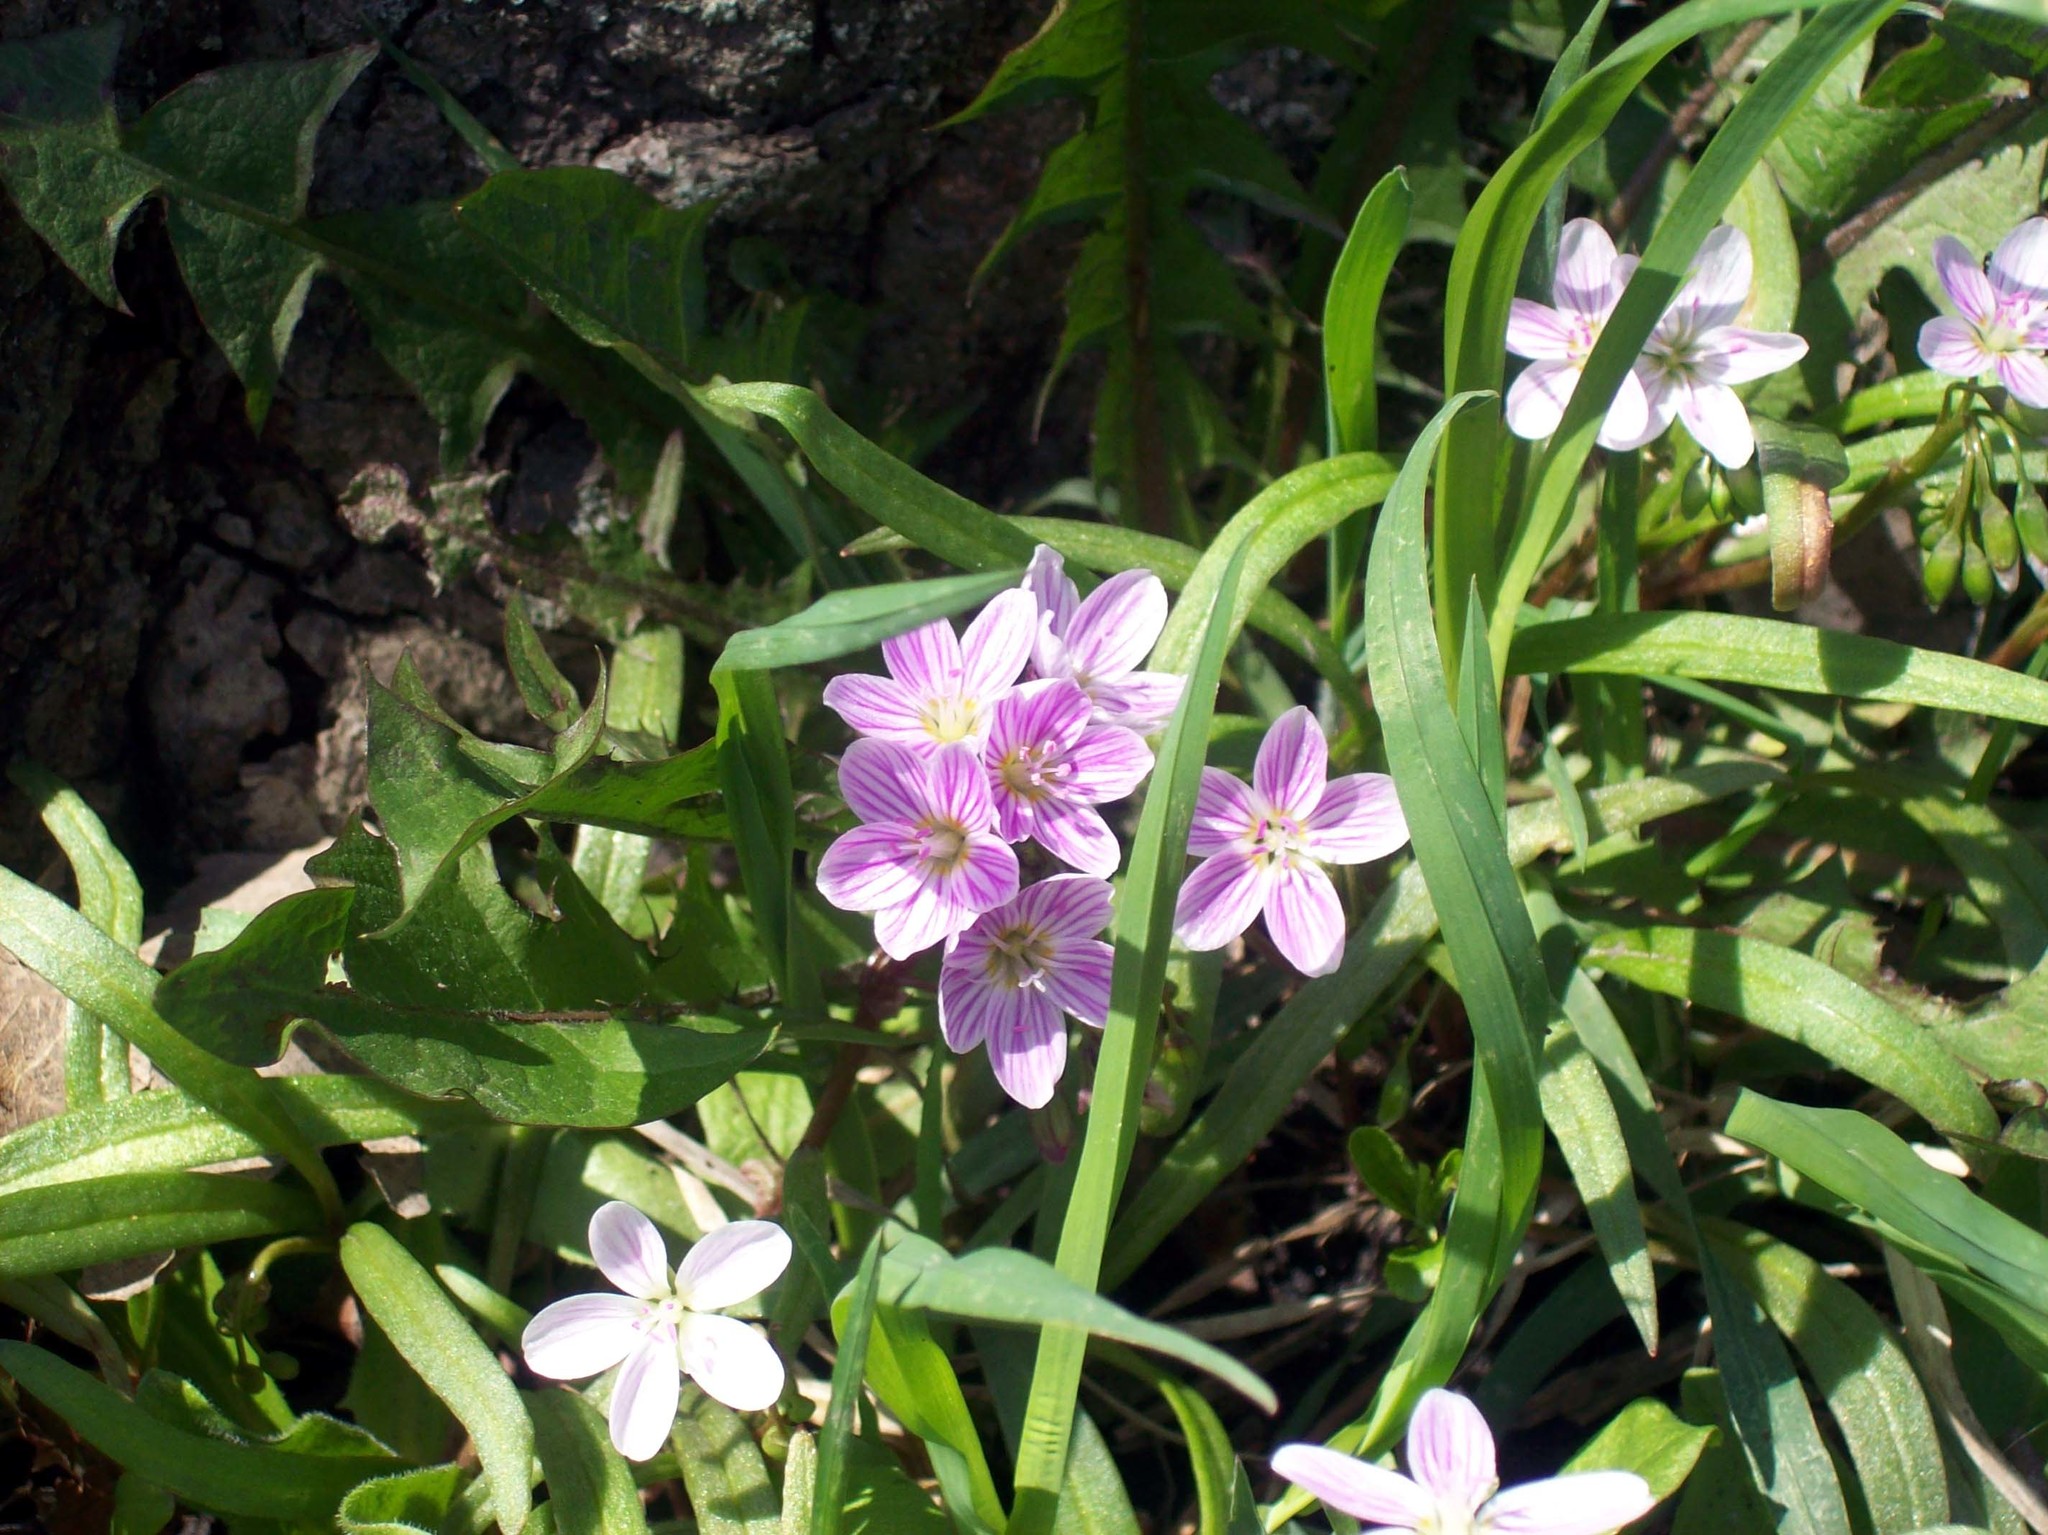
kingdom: Plantae
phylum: Tracheophyta
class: Magnoliopsida
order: Caryophyllales
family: Montiaceae
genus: Claytonia
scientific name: Claytonia virginica
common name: Virginia springbeauty
